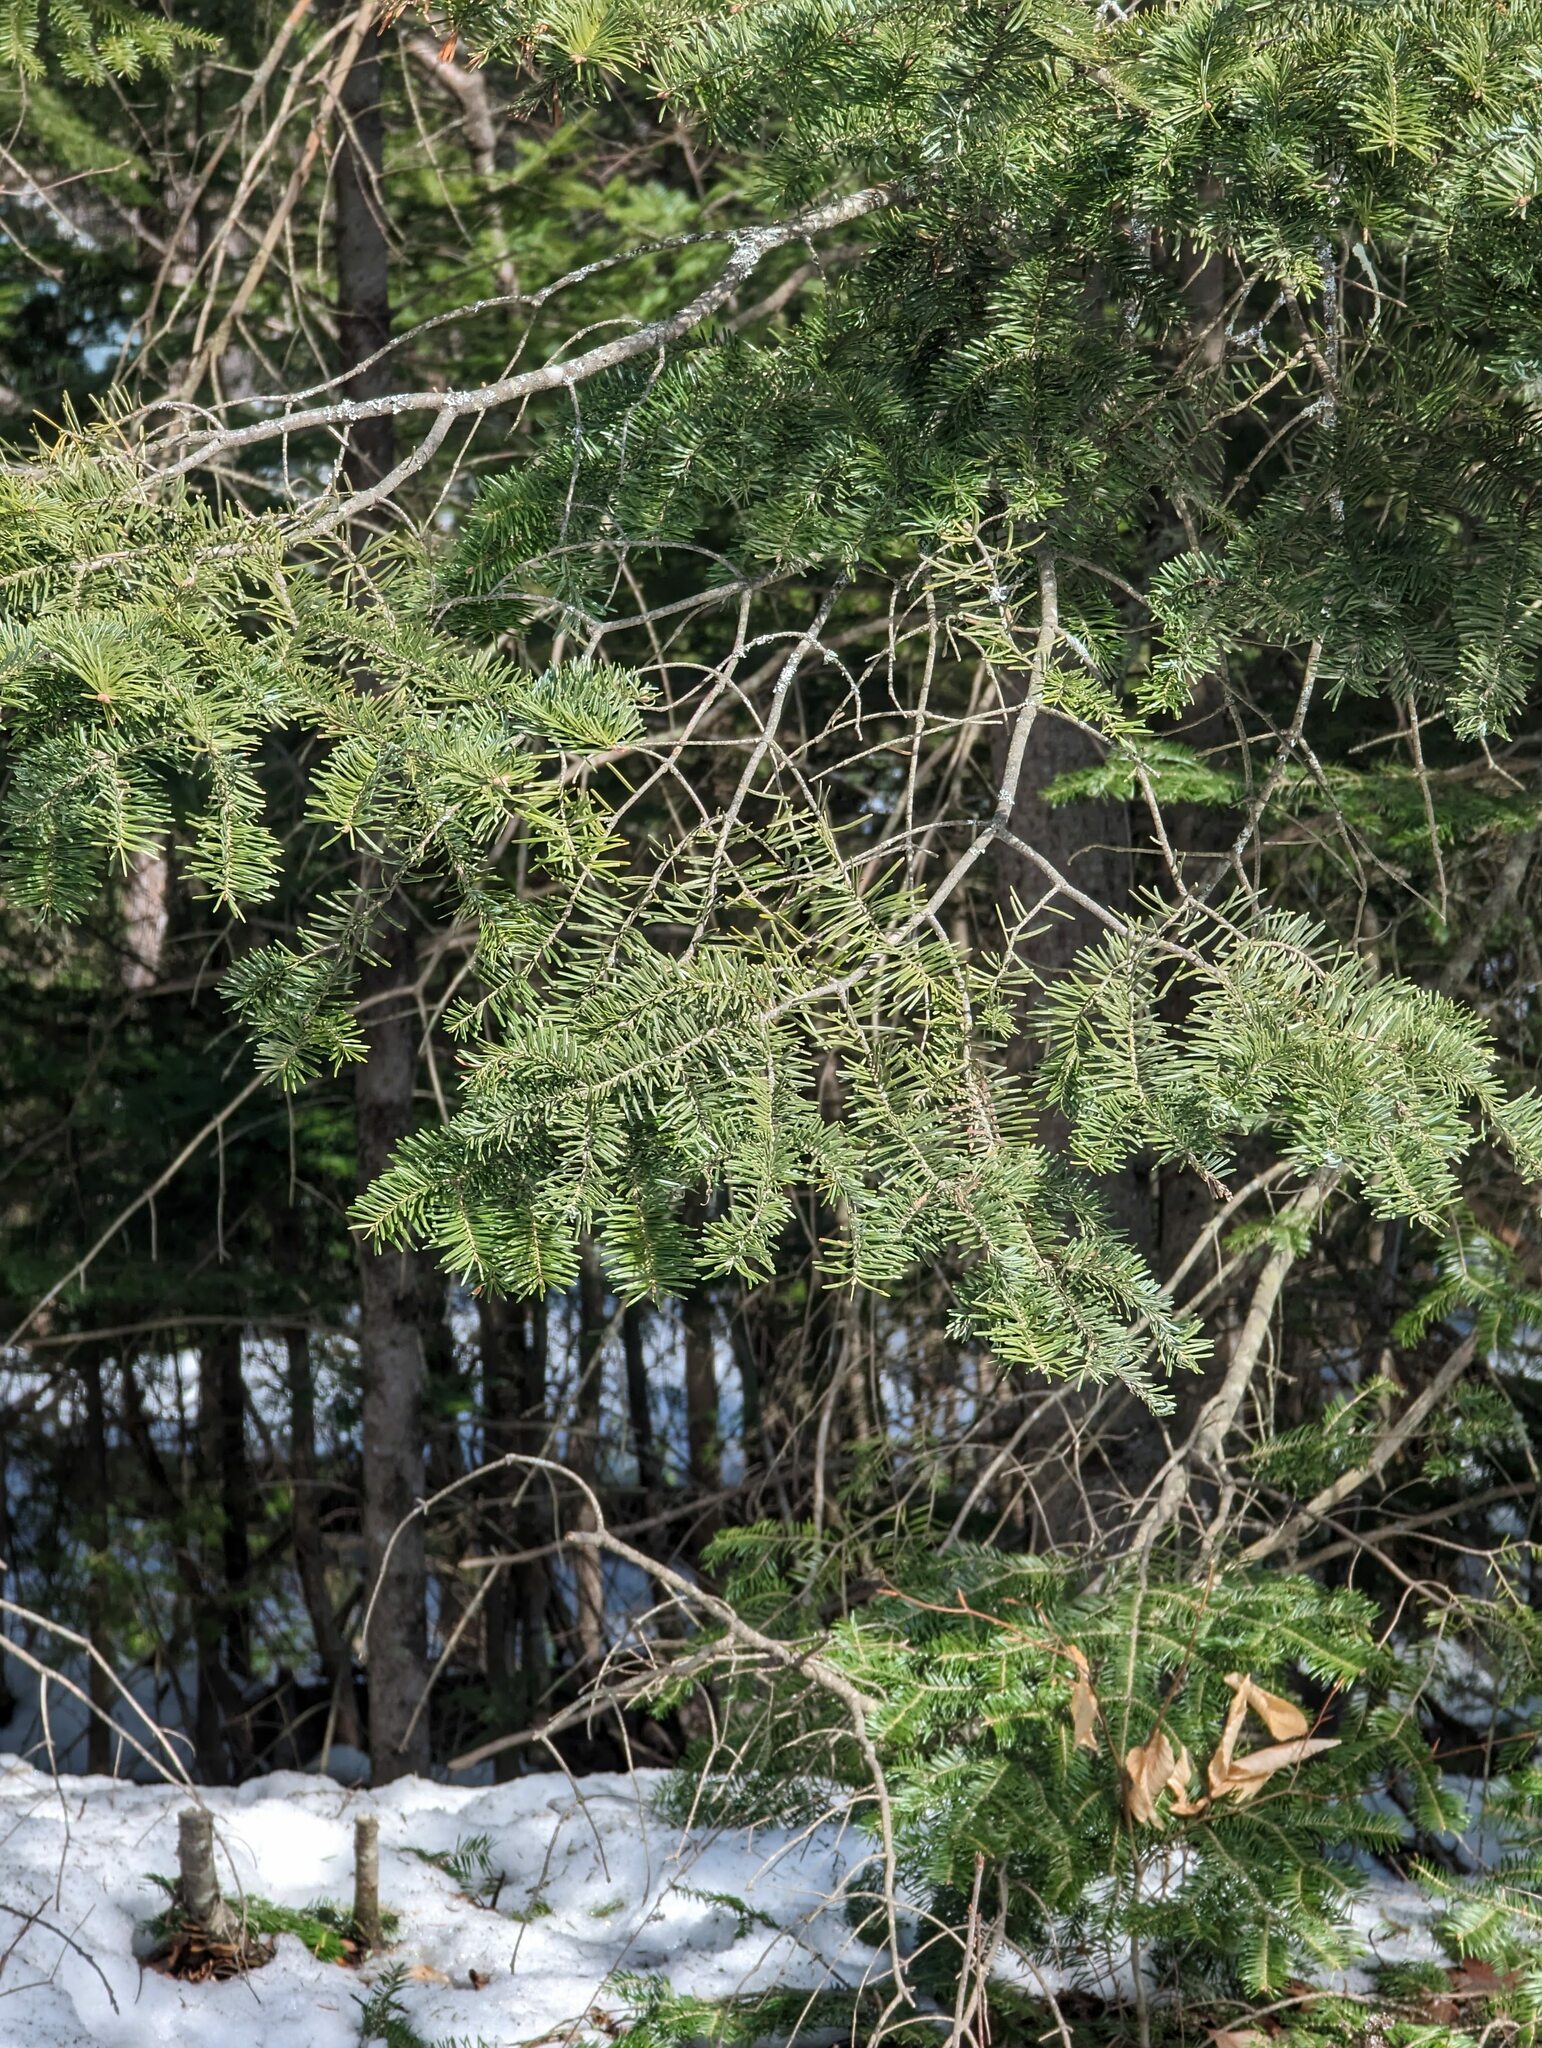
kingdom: Plantae
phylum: Tracheophyta
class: Pinopsida
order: Pinales
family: Pinaceae
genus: Abies
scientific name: Abies balsamea
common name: Balsam fir
